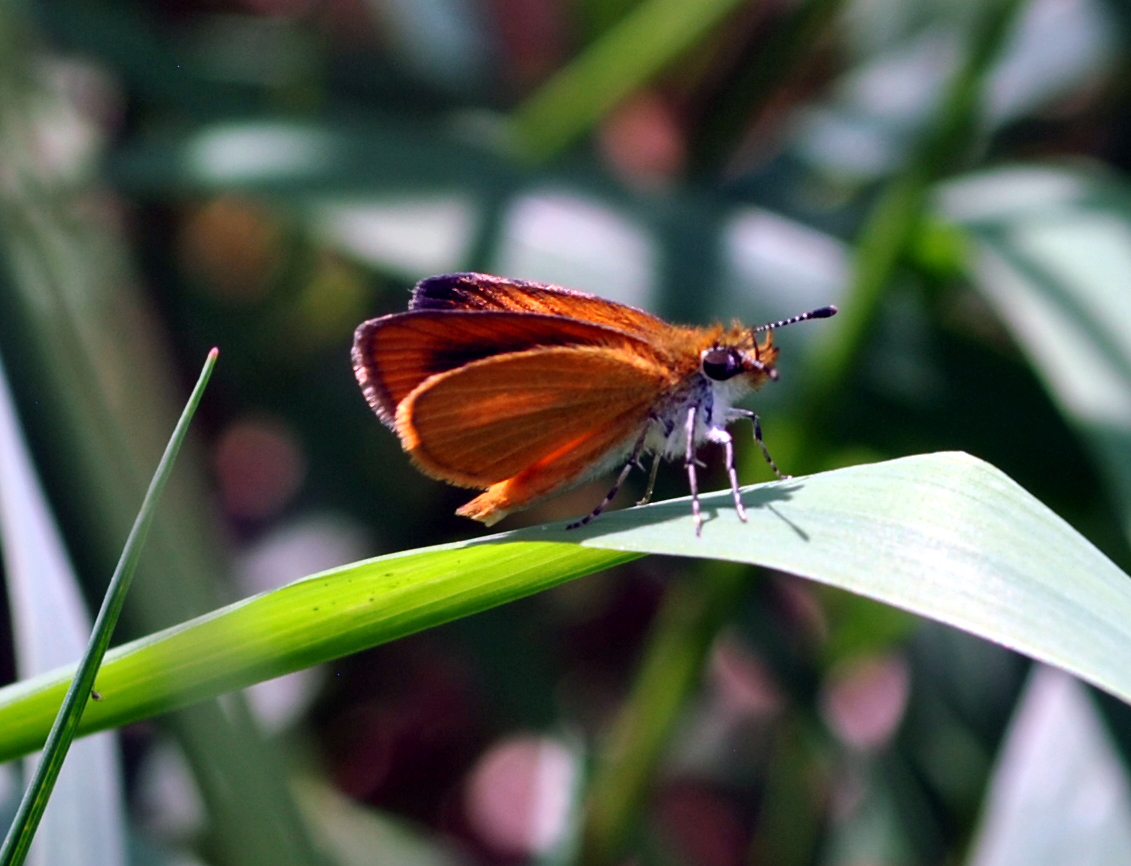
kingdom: Animalia
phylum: Arthropoda
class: Insecta
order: Lepidoptera
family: Hesperiidae
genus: Ancyloxypha
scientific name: Ancyloxypha numitor
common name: Least skipper
